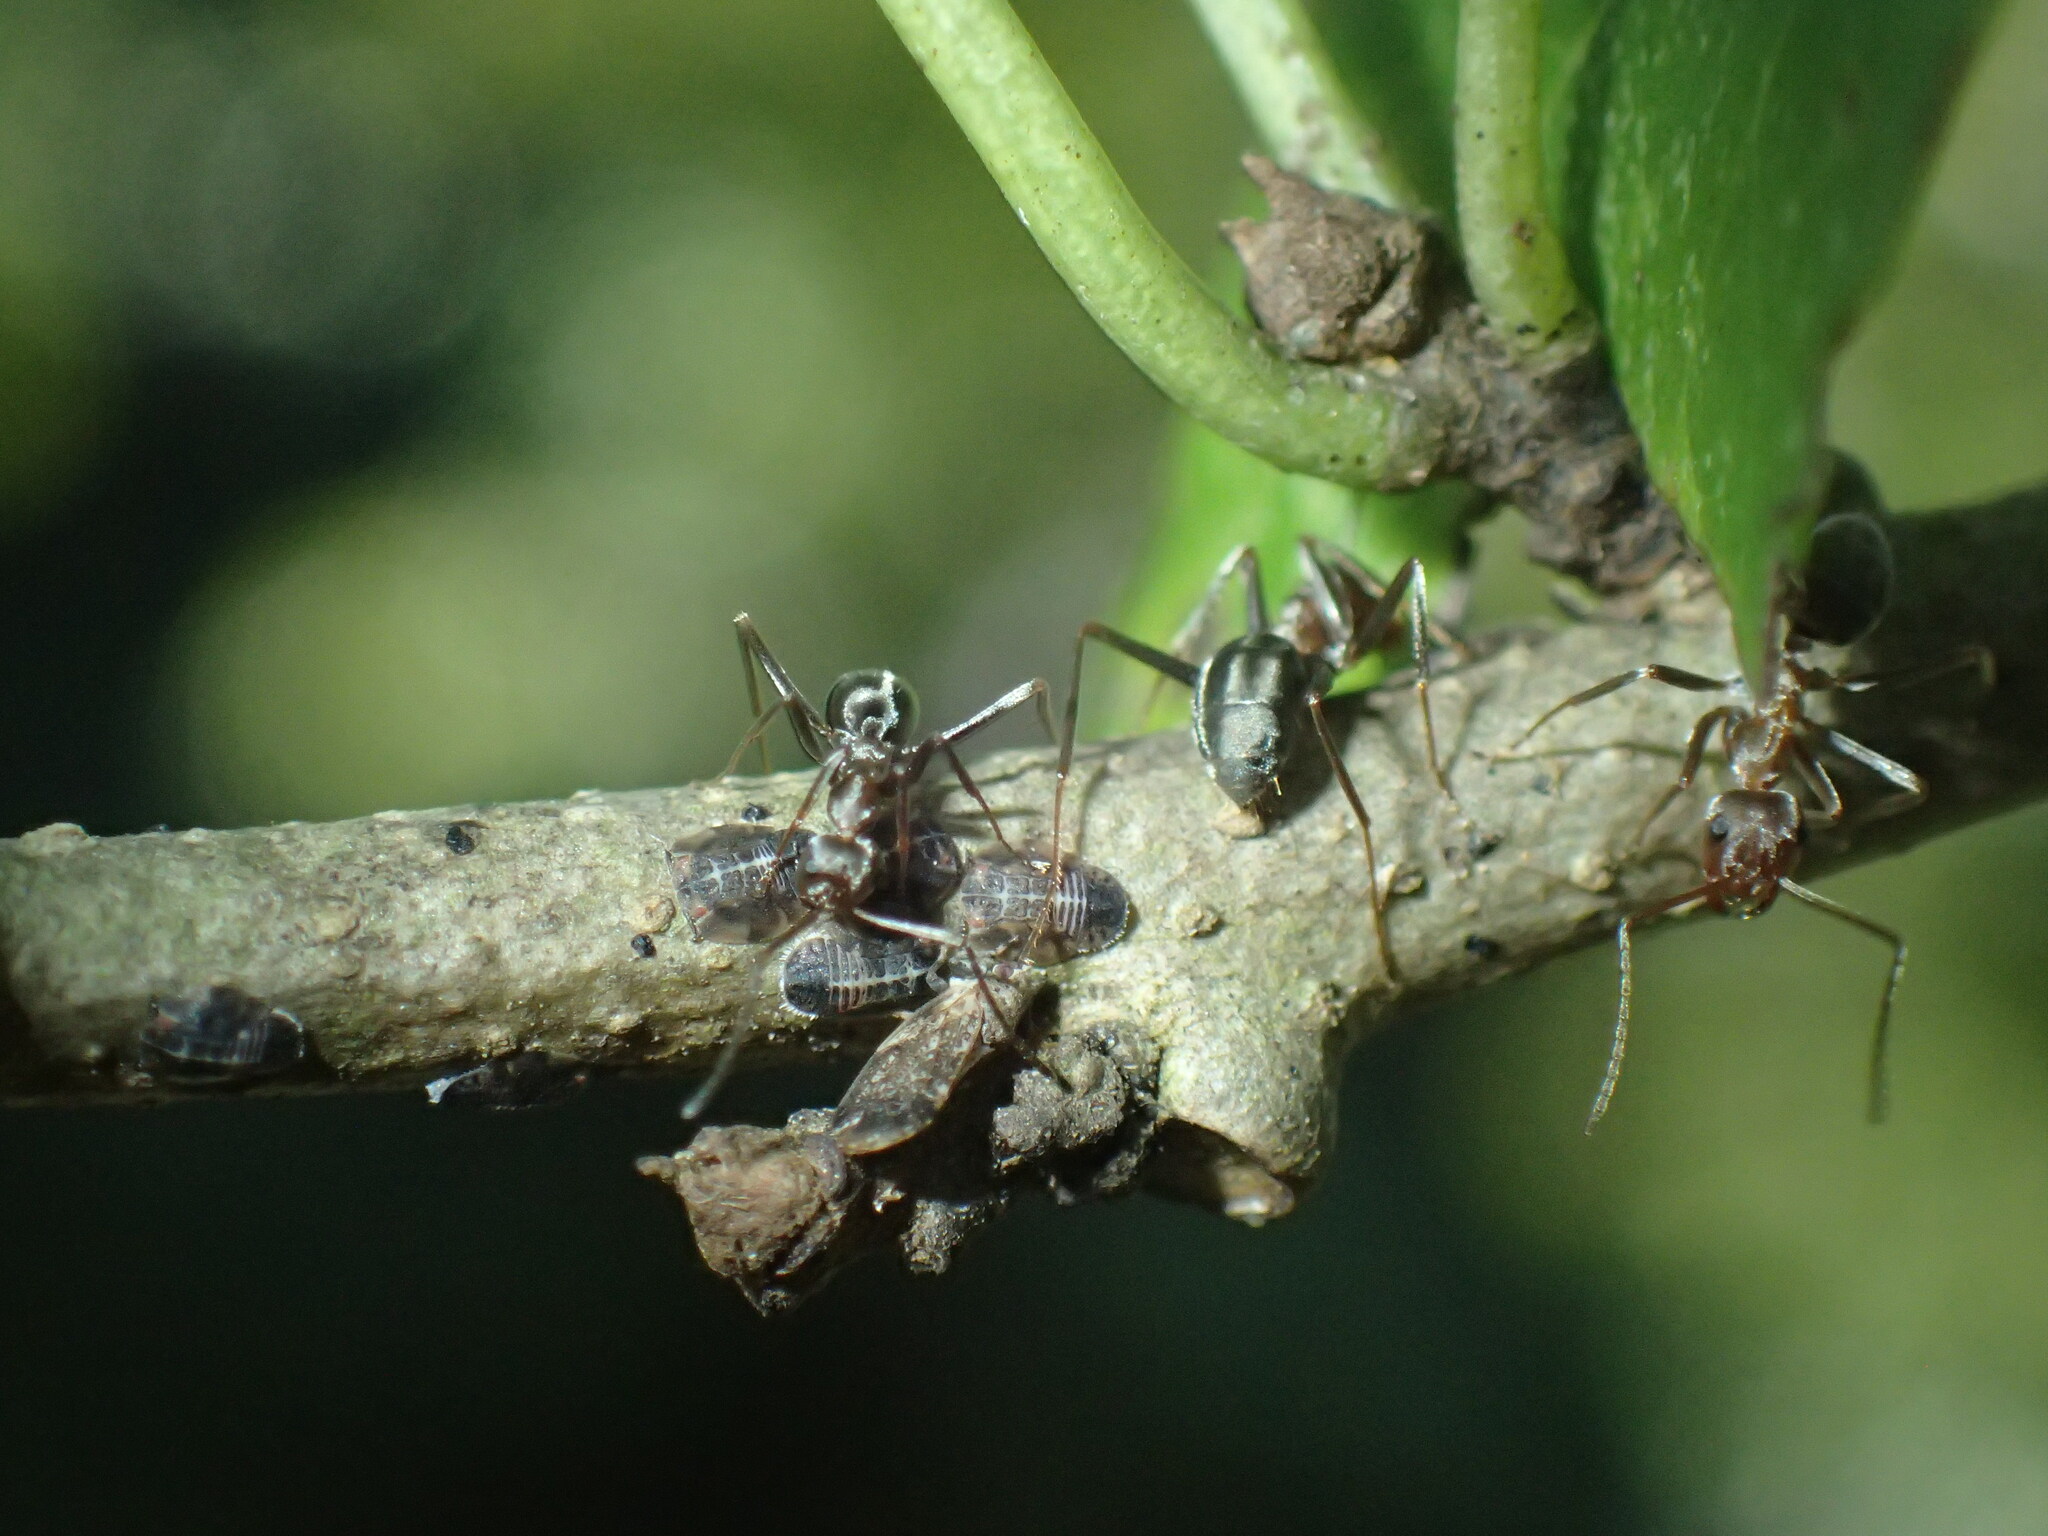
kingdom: Animalia
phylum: Arthropoda
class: Insecta
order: Hymenoptera
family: Formicidae
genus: Anoplolepis
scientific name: Anoplolepis custodiens
